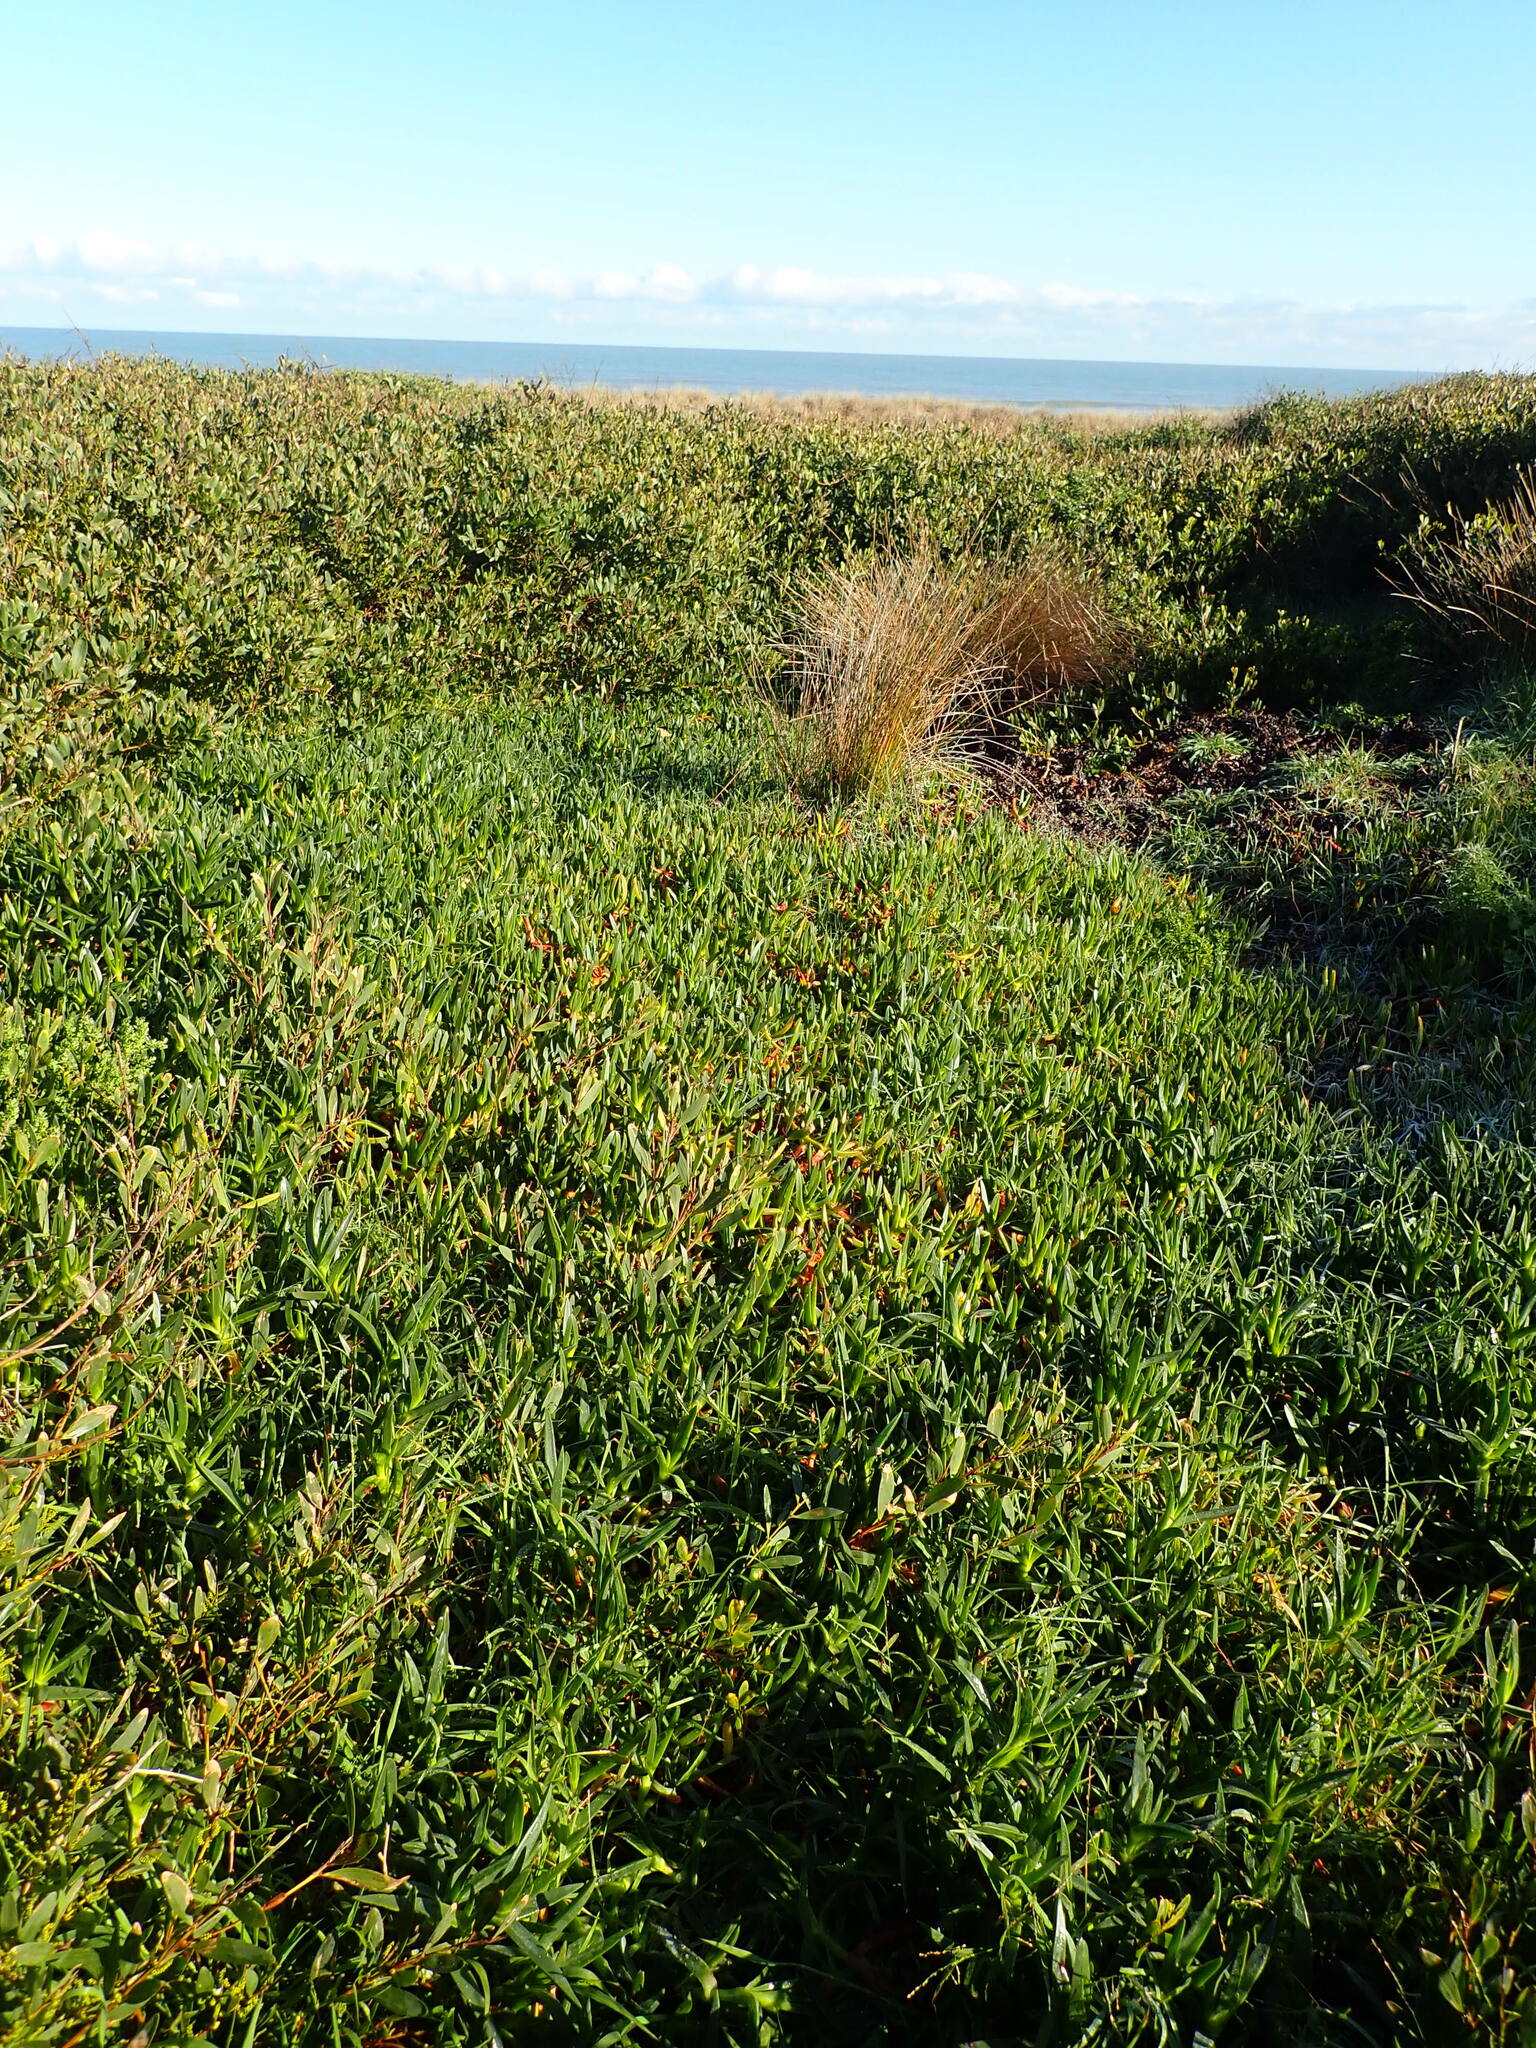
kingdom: Plantae
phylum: Tracheophyta
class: Magnoliopsida
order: Caryophyllales
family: Aizoaceae
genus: Carpobrotus
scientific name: Carpobrotus edulis
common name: Hottentot-fig
